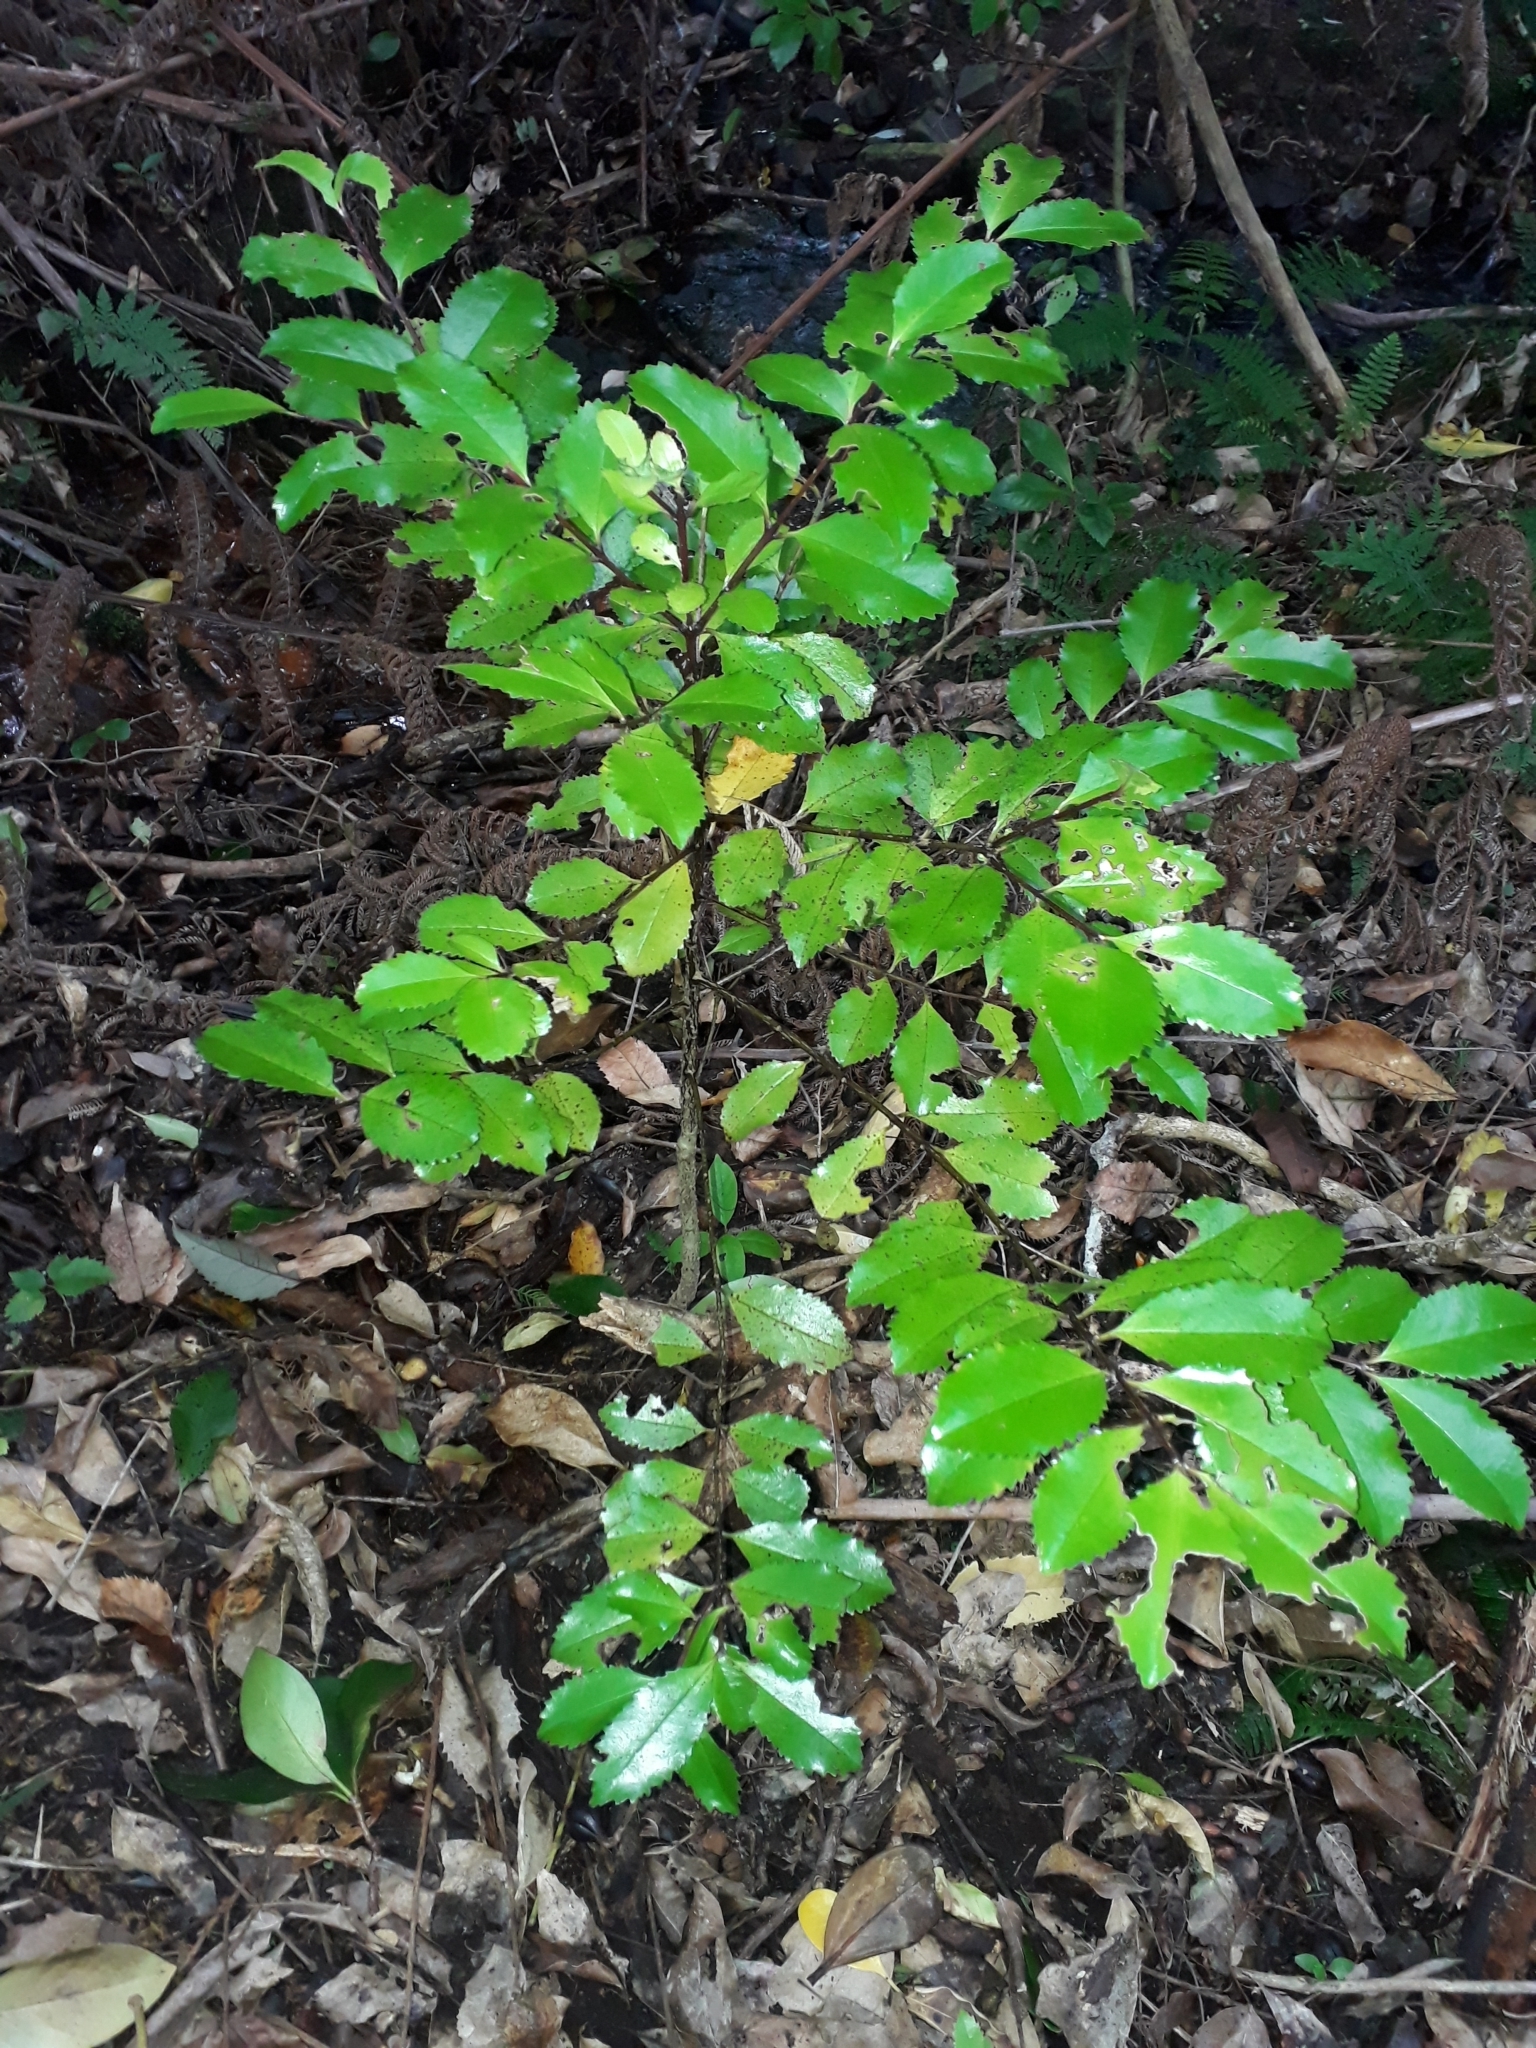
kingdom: Plantae
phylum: Tracheophyta
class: Magnoliopsida
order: Laurales
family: Atherospermataceae
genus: Laurelia
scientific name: Laurelia novae-zelandiae
